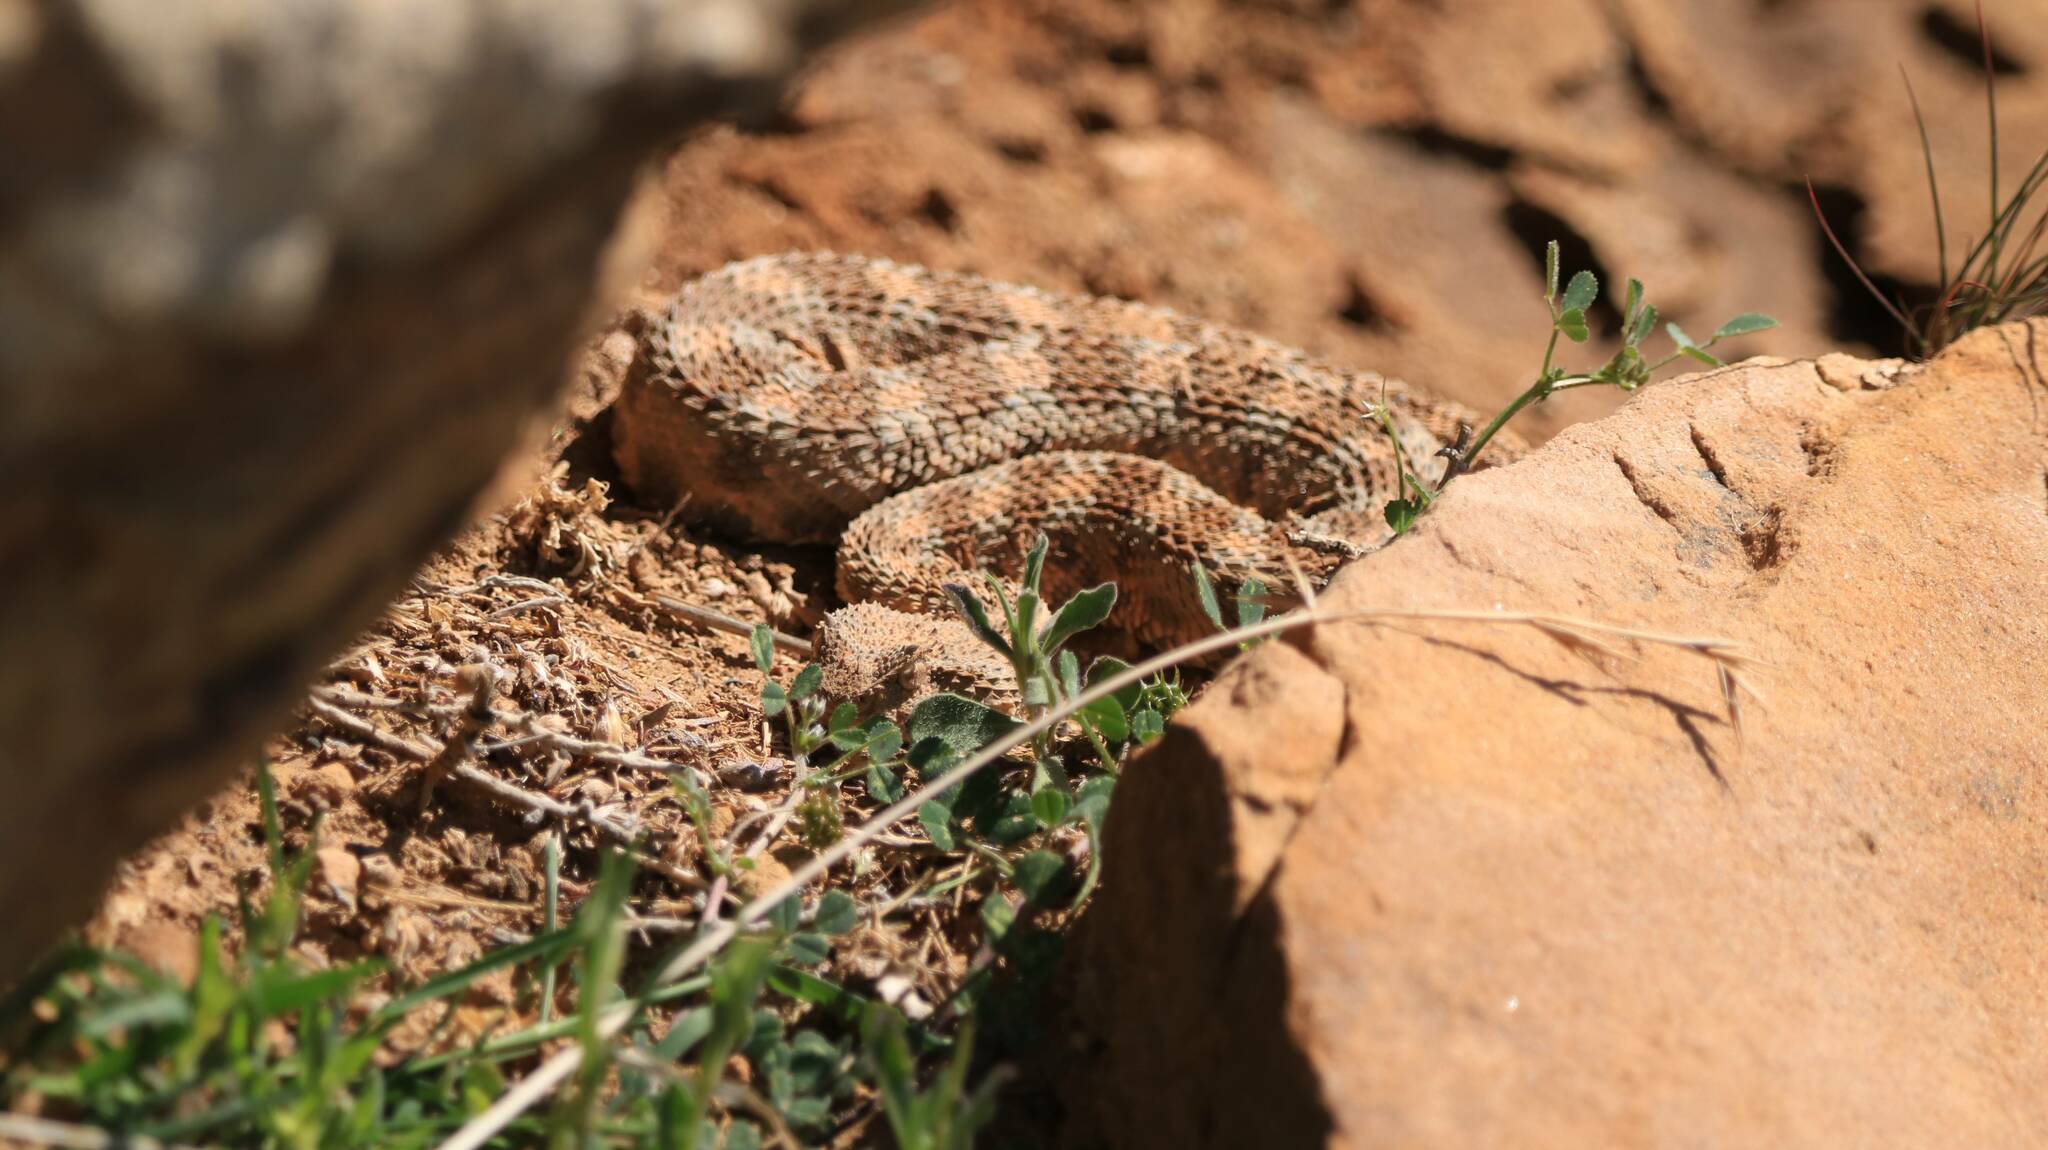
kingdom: Animalia
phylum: Chordata
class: Squamata
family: Viperidae
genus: Cerastes
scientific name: Cerastes cerastes
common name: Desert horned viper
